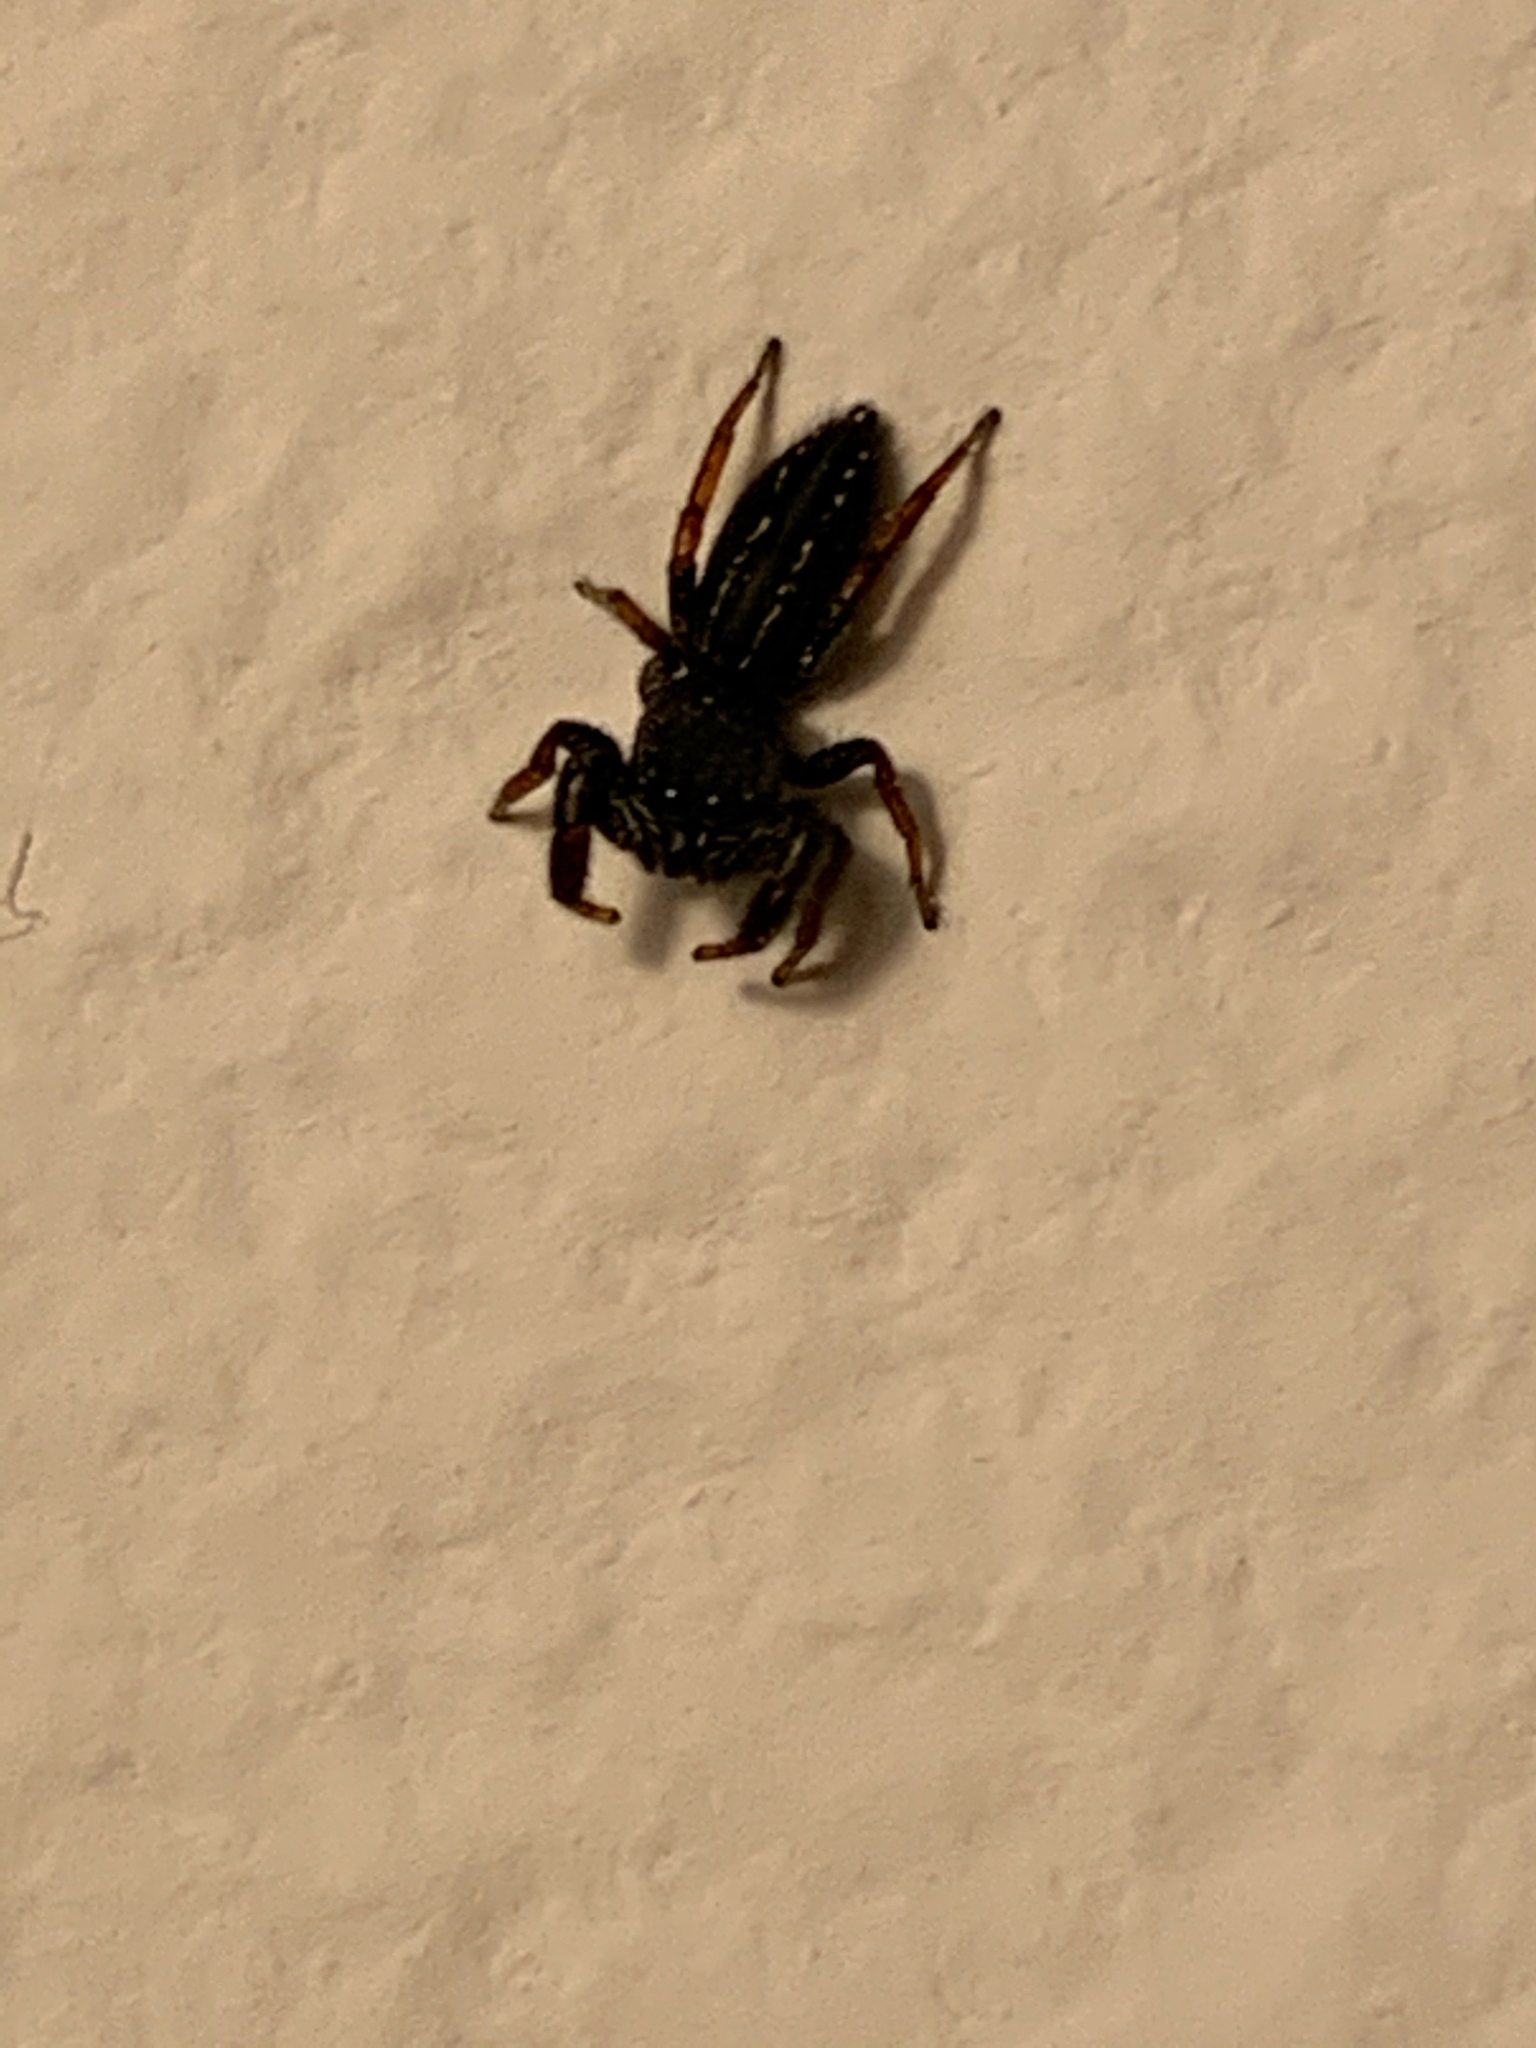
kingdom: Animalia
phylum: Arthropoda
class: Arachnida
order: Araneae
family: Salticidae
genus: Metacyrba
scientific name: Metacyrba taeniola
